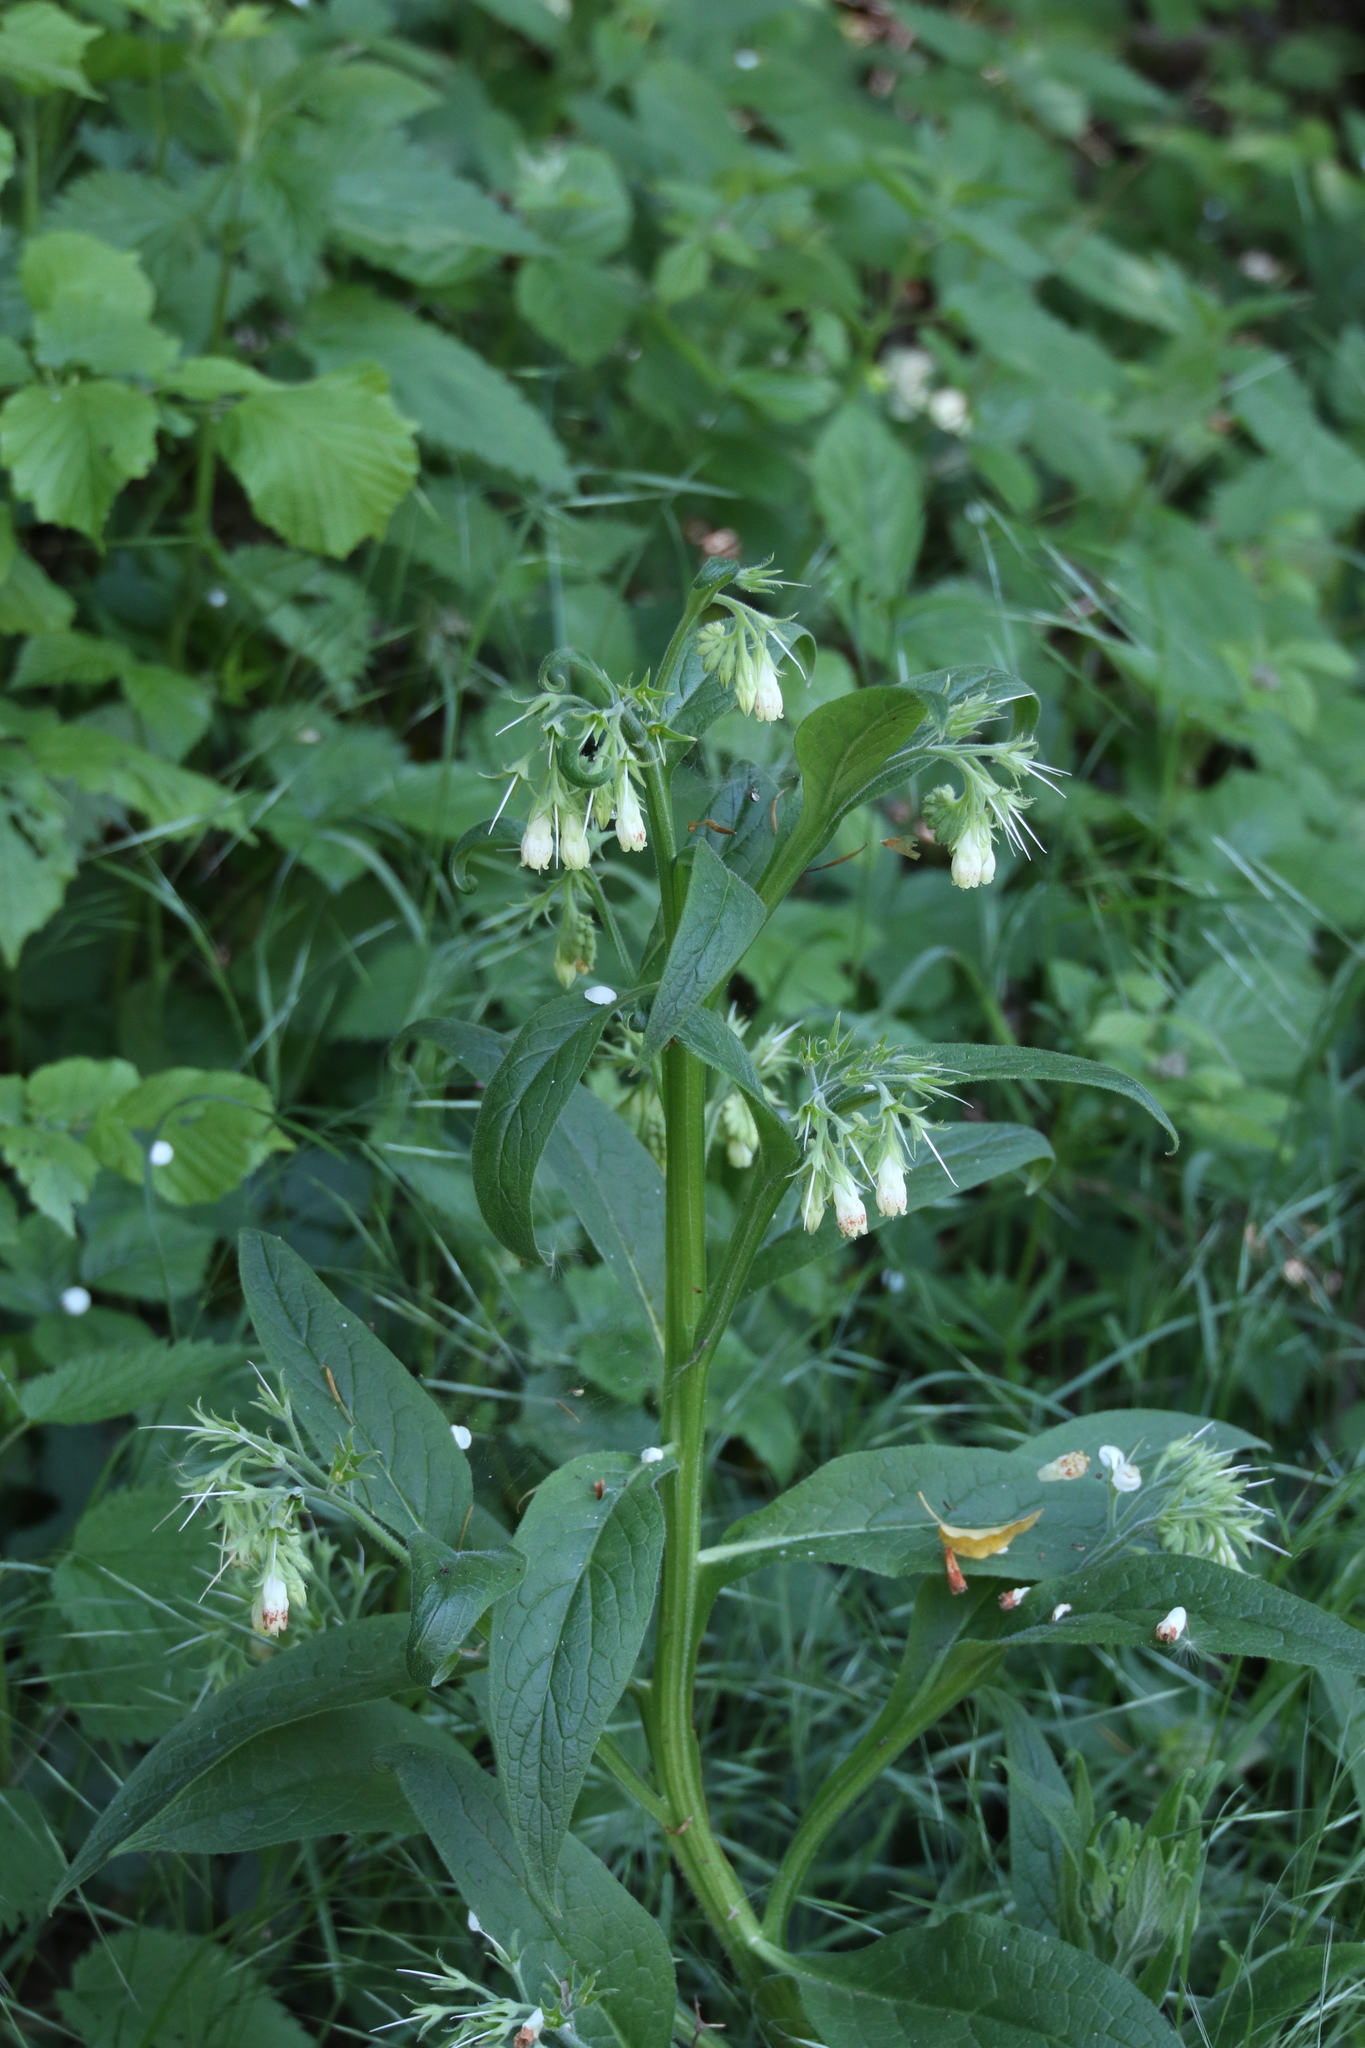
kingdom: Plantae
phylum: Tracheophyta
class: Magnoliopsida
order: Boraginales
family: Boraginaceae
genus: Symphytum
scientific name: Symphytum officinale
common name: Common comfrey
